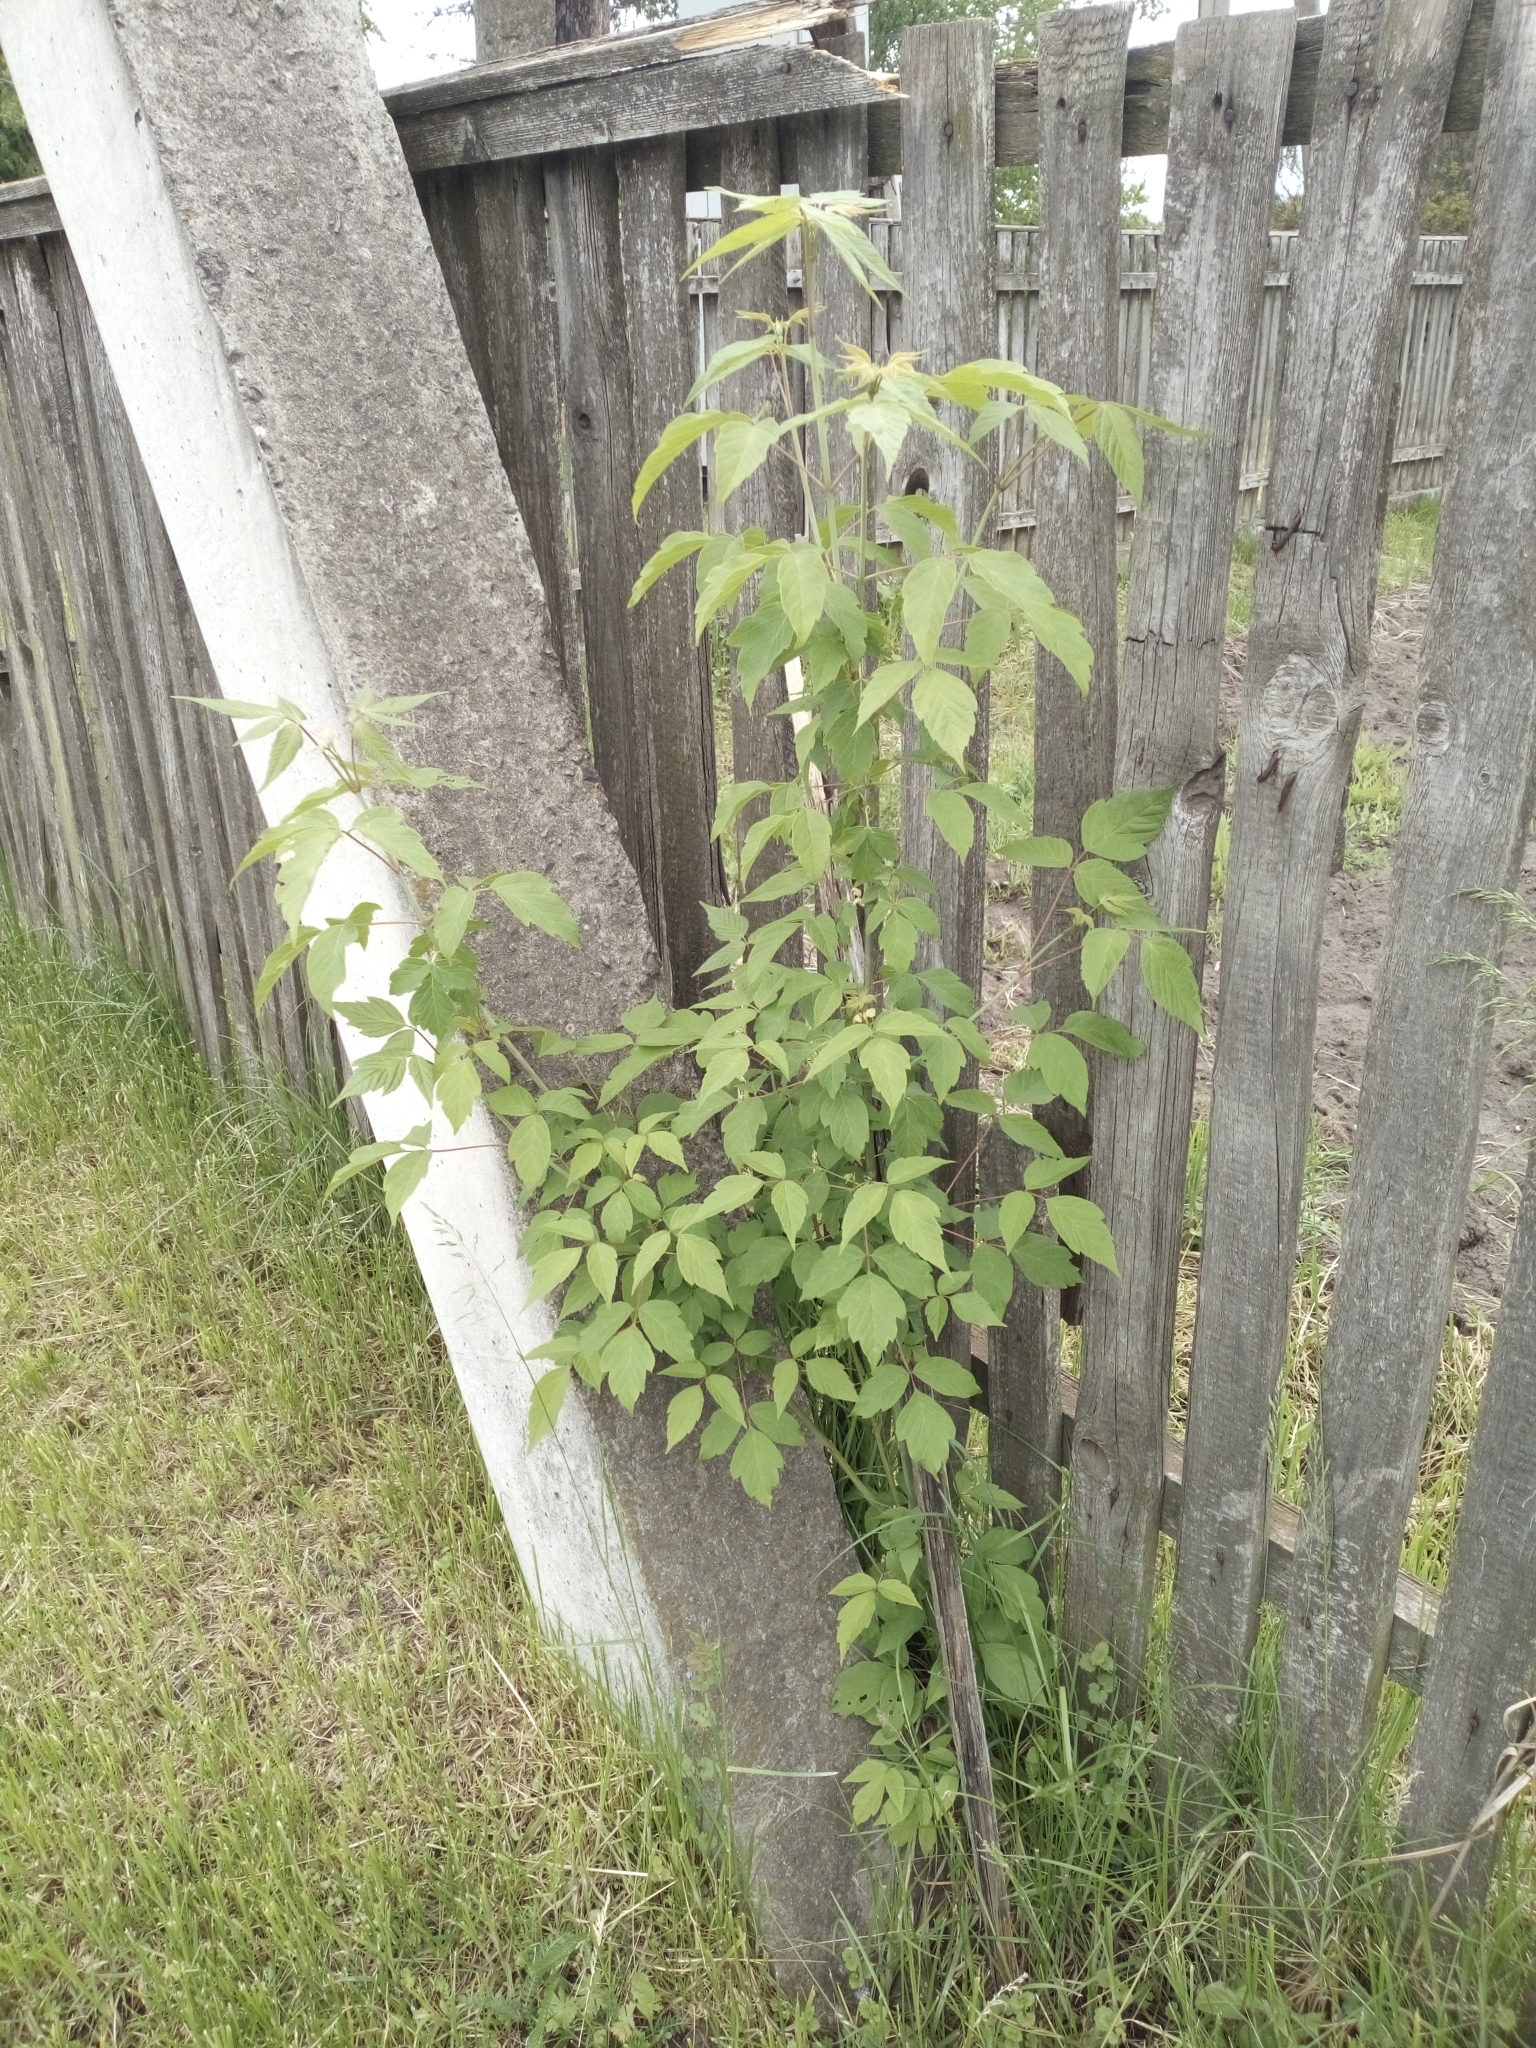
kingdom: Plantae
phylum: Tracheophyta
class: Magnoliopsida
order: Sapindales
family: Sapindaceae
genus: Acer
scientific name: Acer negundo
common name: Ashleaf maple
